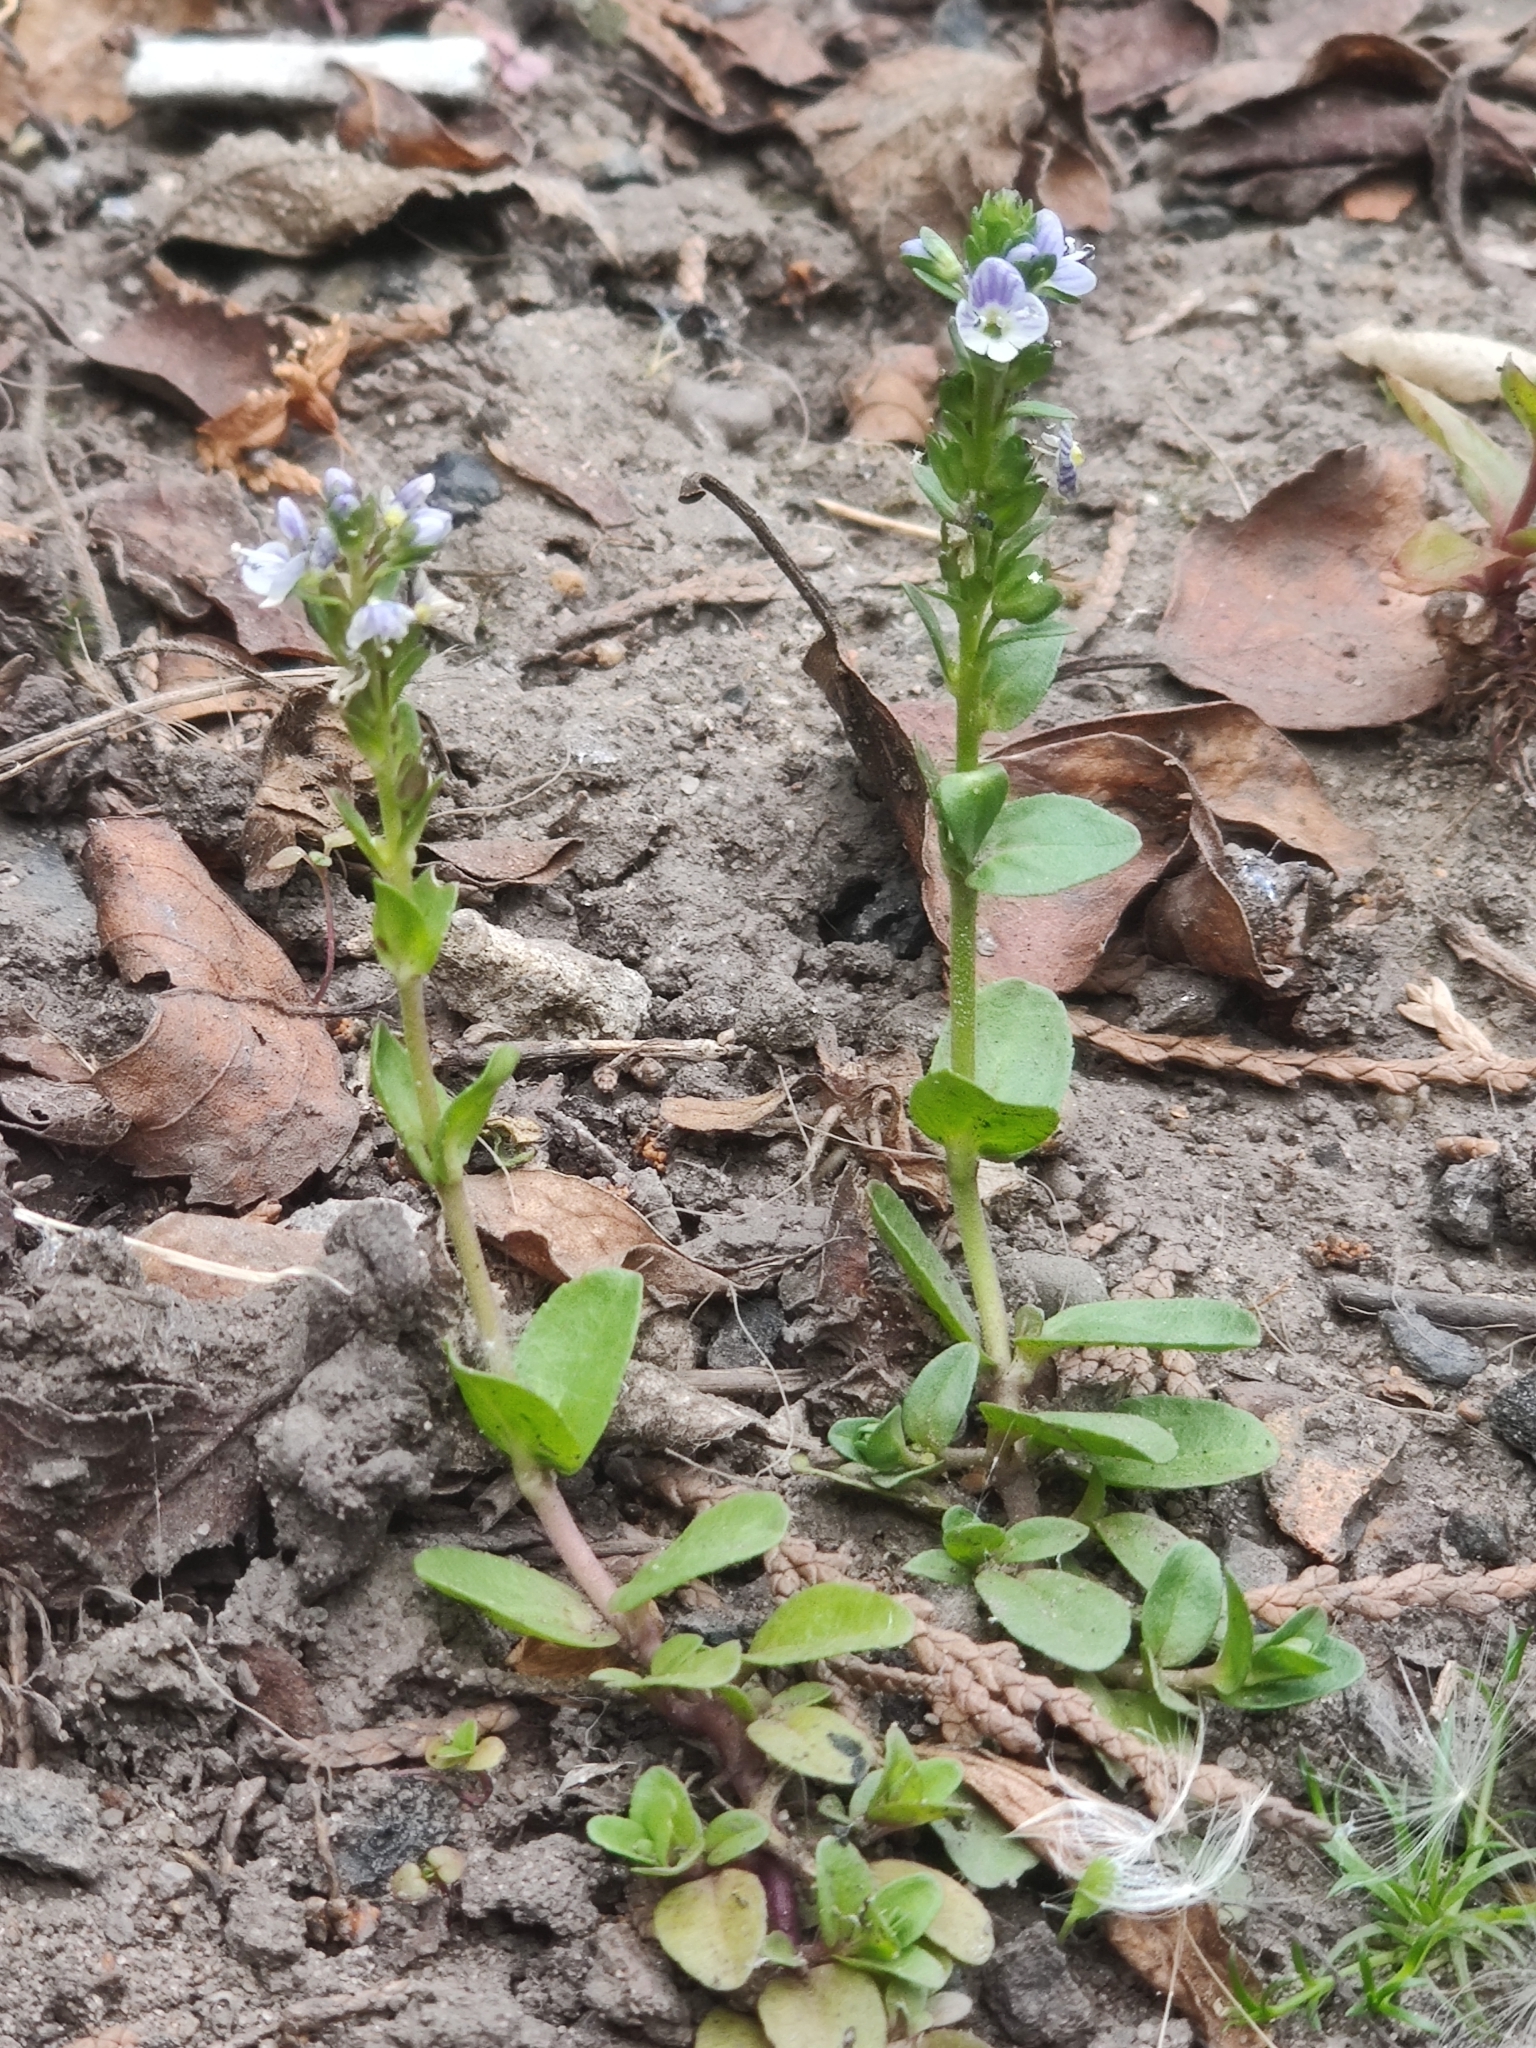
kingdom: Plantae
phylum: Tracheophyta
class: Magnoliopsida
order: Lamiales
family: Plantaginaceae
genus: Veronica
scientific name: Veronica serpyllifolia
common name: Thyme-leaved speedwell
